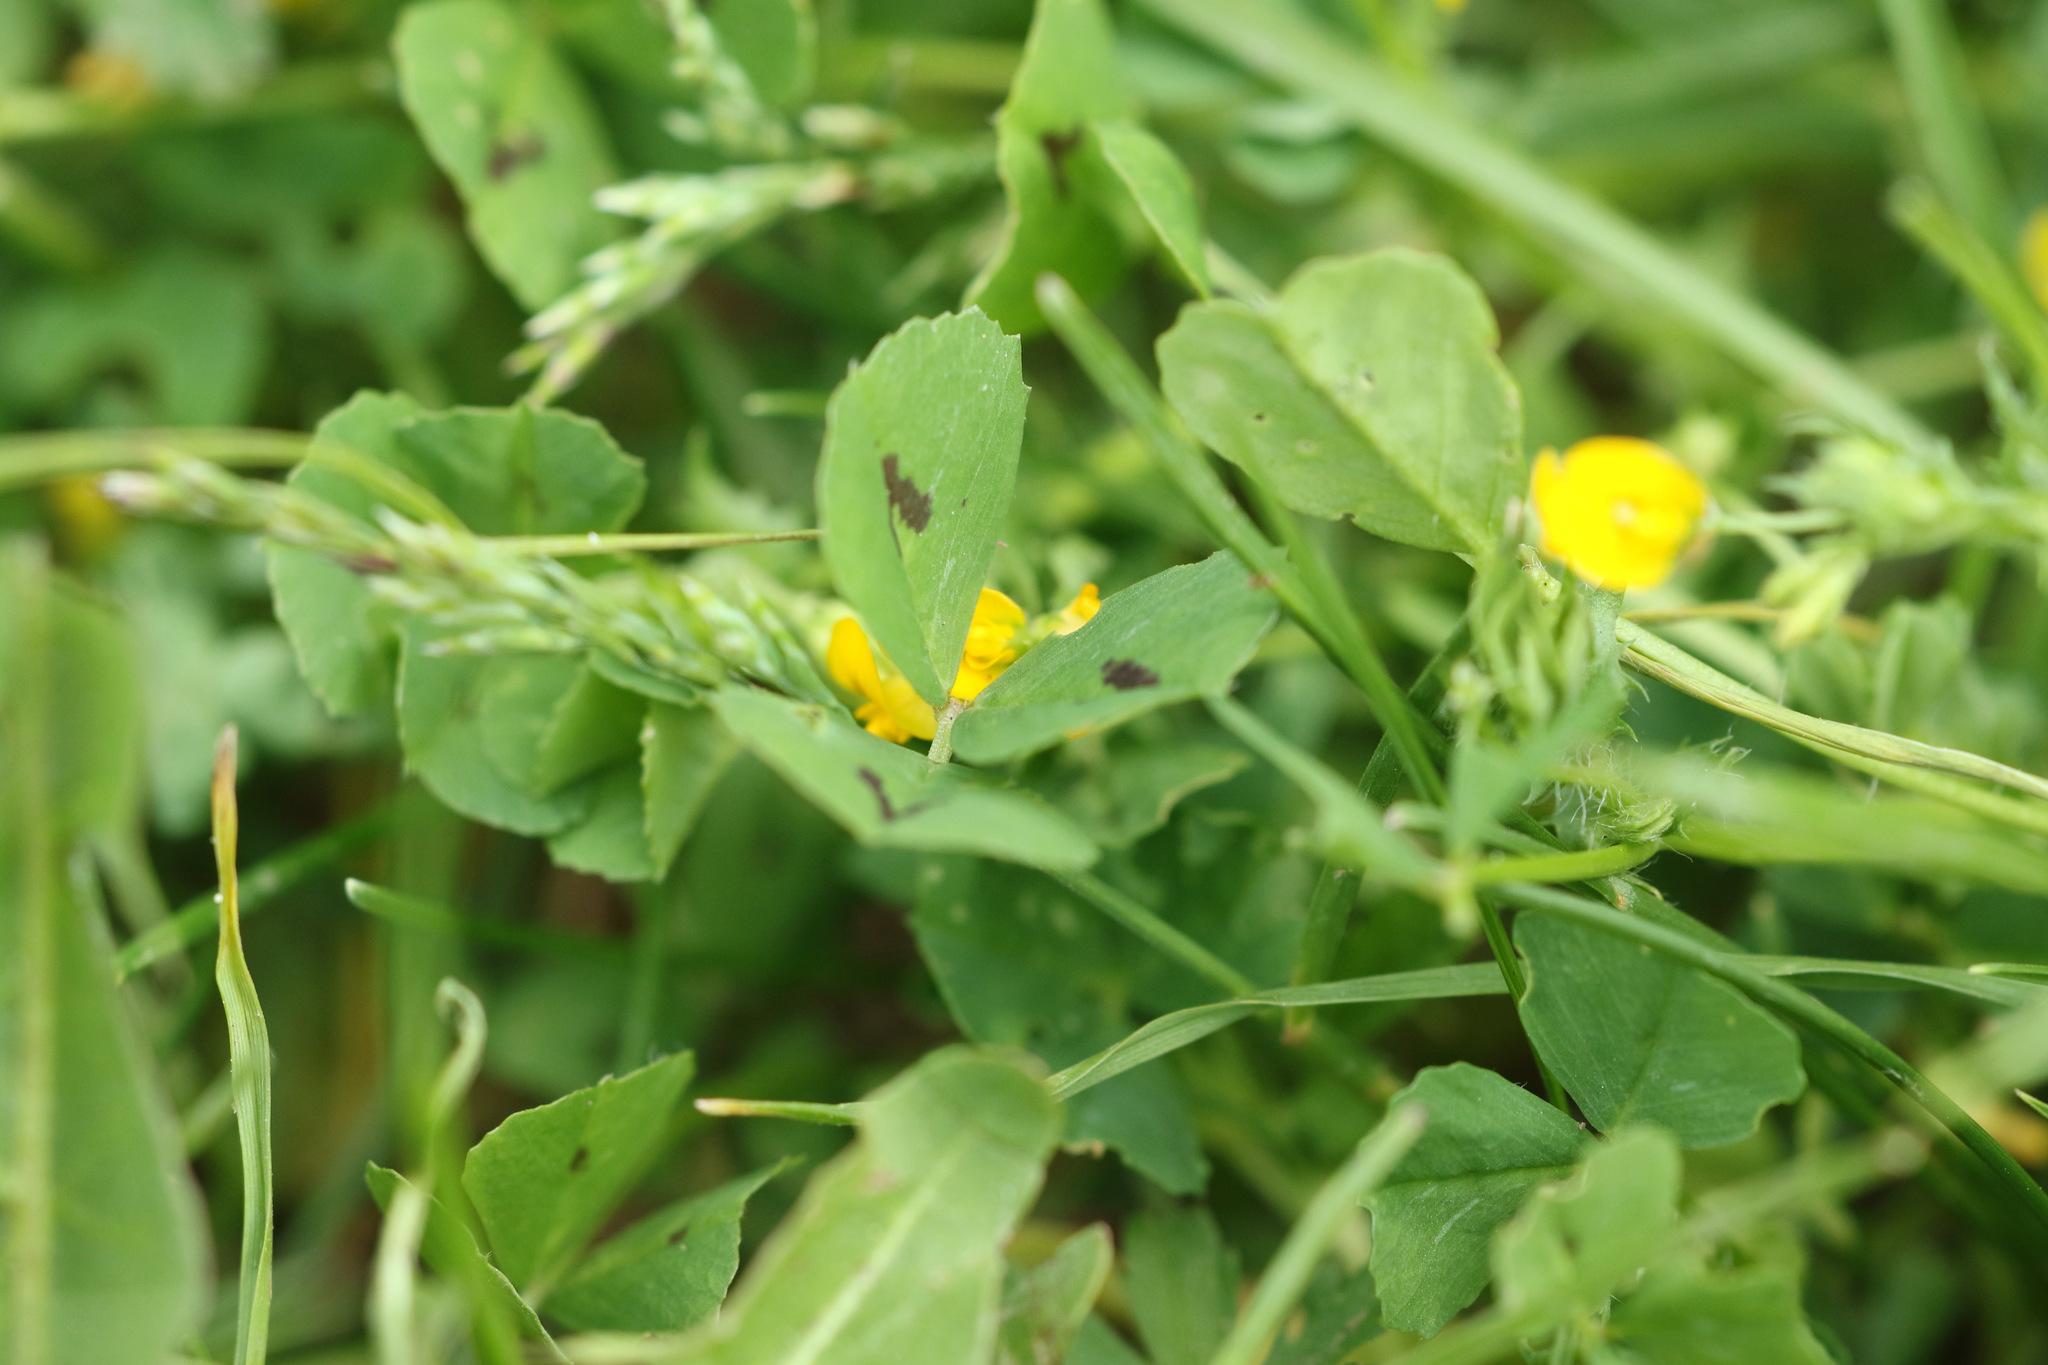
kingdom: Plantae
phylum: Tracheophyta
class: Magnoliopsida
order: Fabales
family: Fabaceae
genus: Medicago
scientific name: Medicago arabica
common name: Spotted medick
